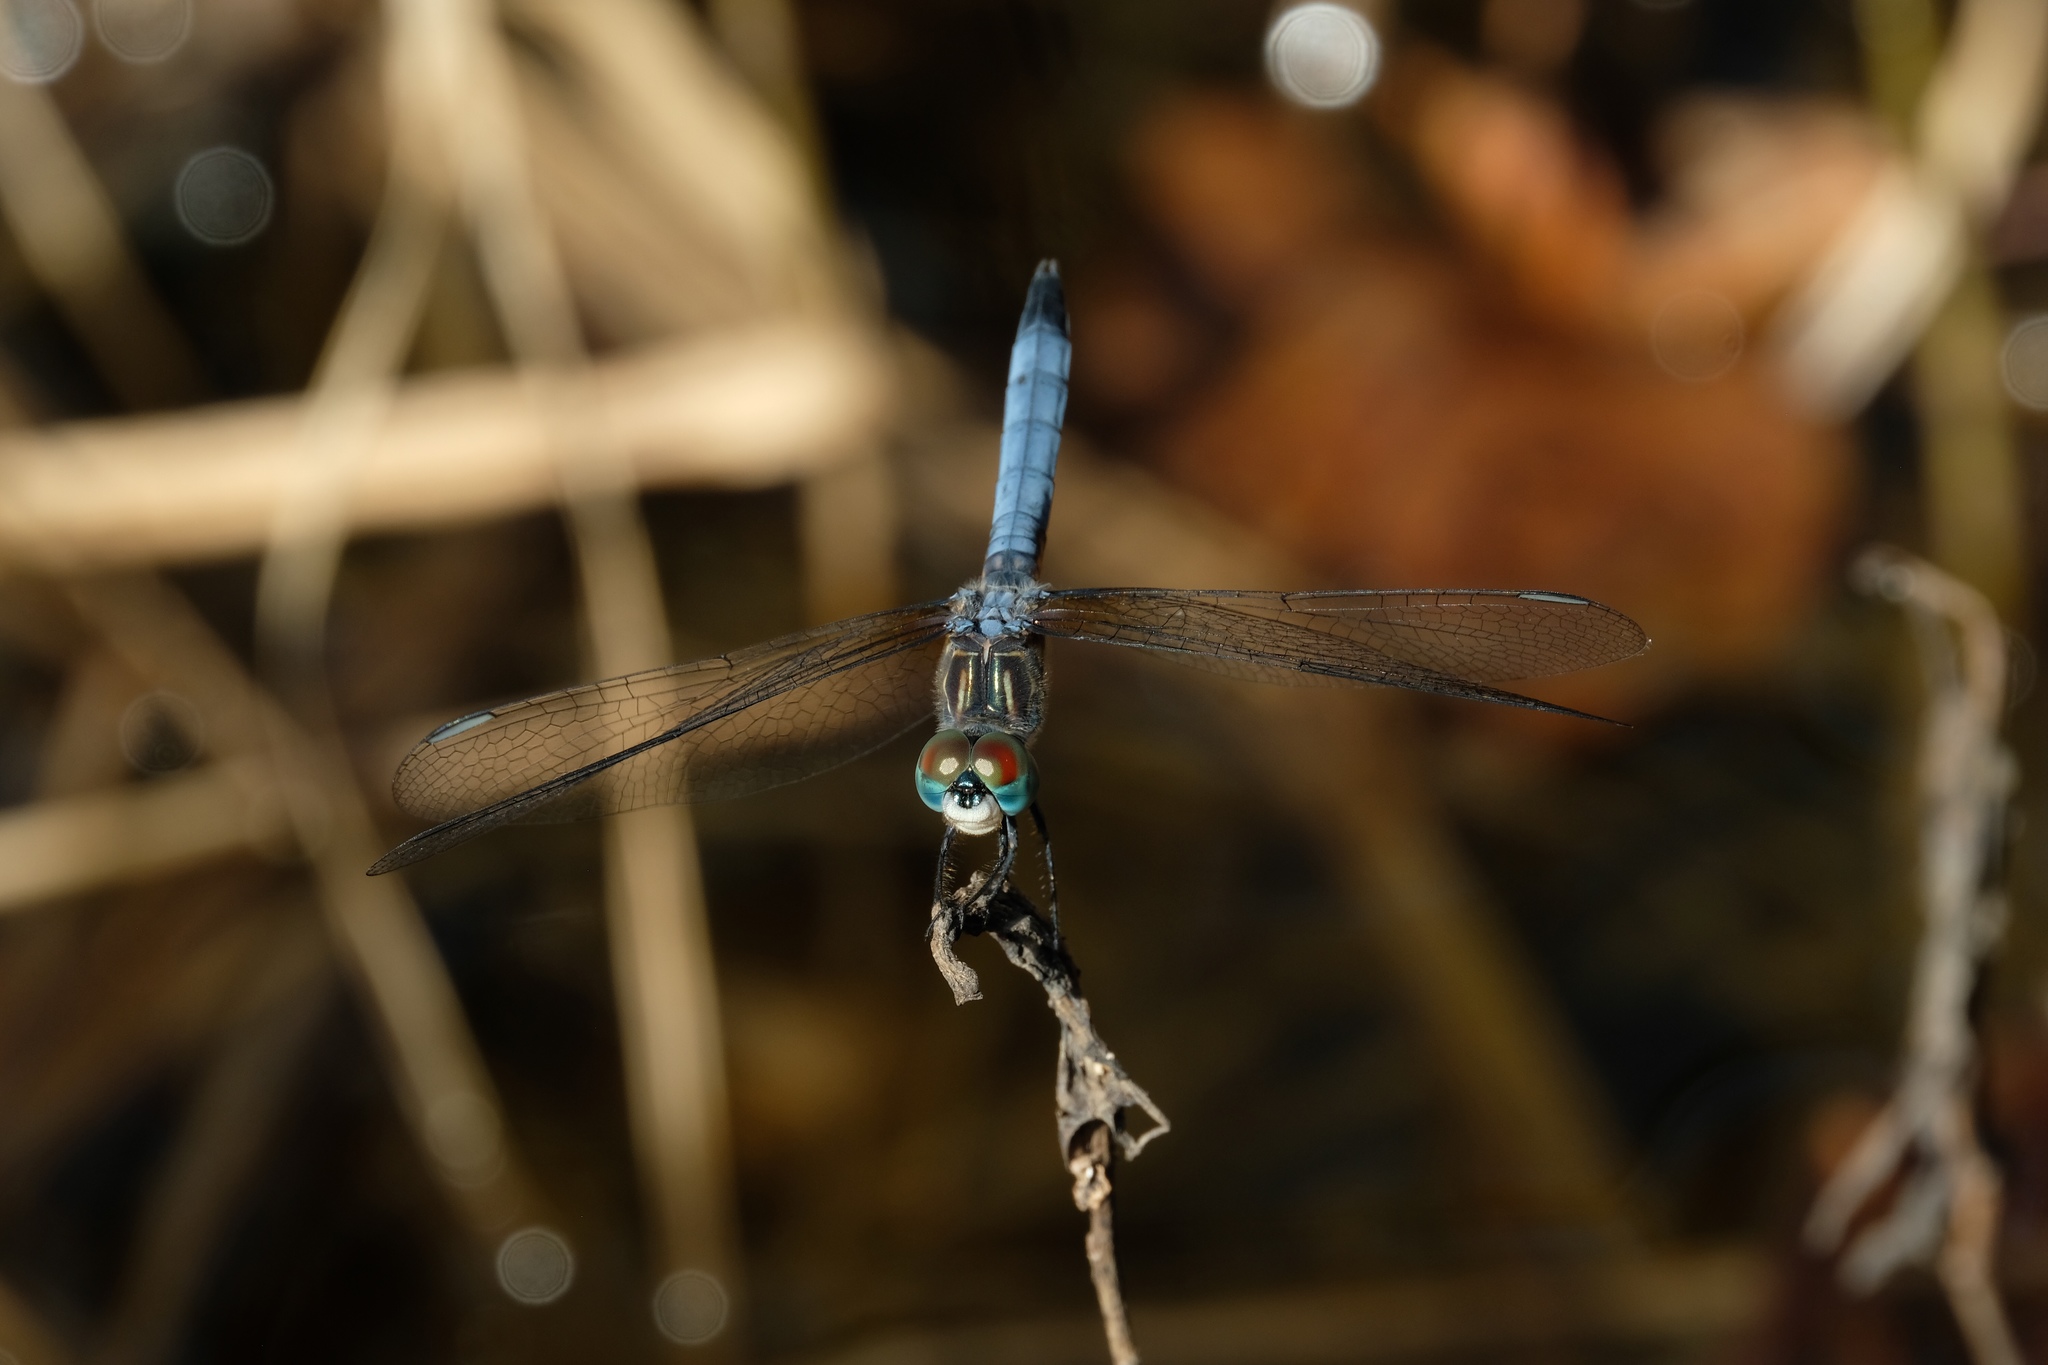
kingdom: Animalia
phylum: Arthropoda
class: Insecta
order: Odonata
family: Libellulidae
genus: Pachydiplax
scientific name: Pachydiplax longipennis
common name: Blue dasher
